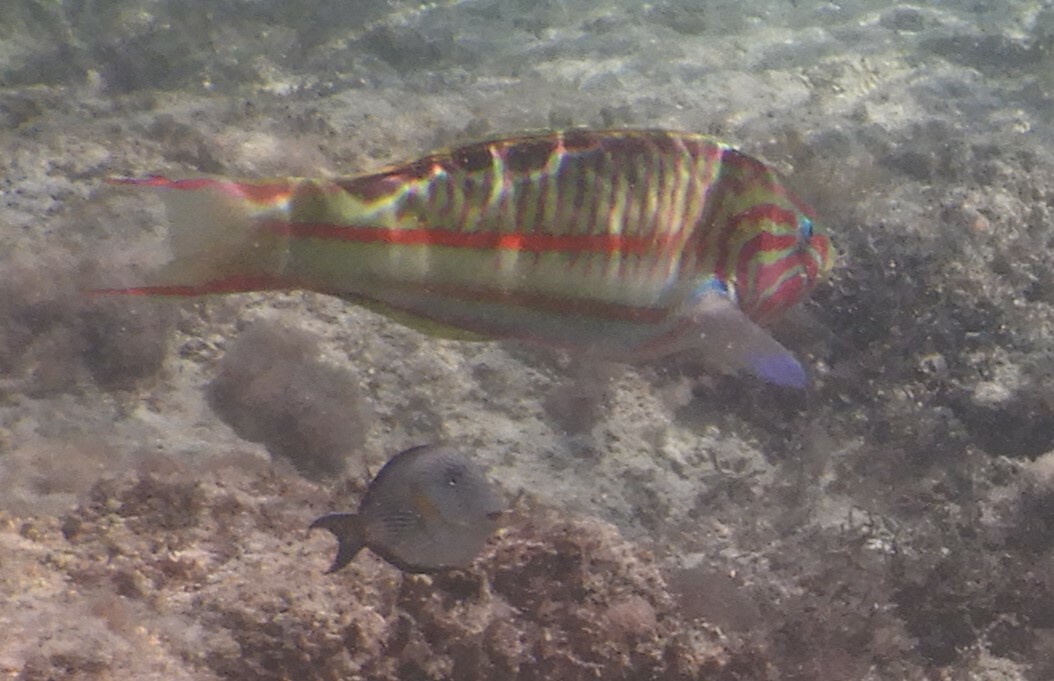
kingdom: Animalia
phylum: Chordata
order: Perciformes
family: Acanthuridae
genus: Acanthurus
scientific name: Acanthurus sohal
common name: Red sea surgeonfish
